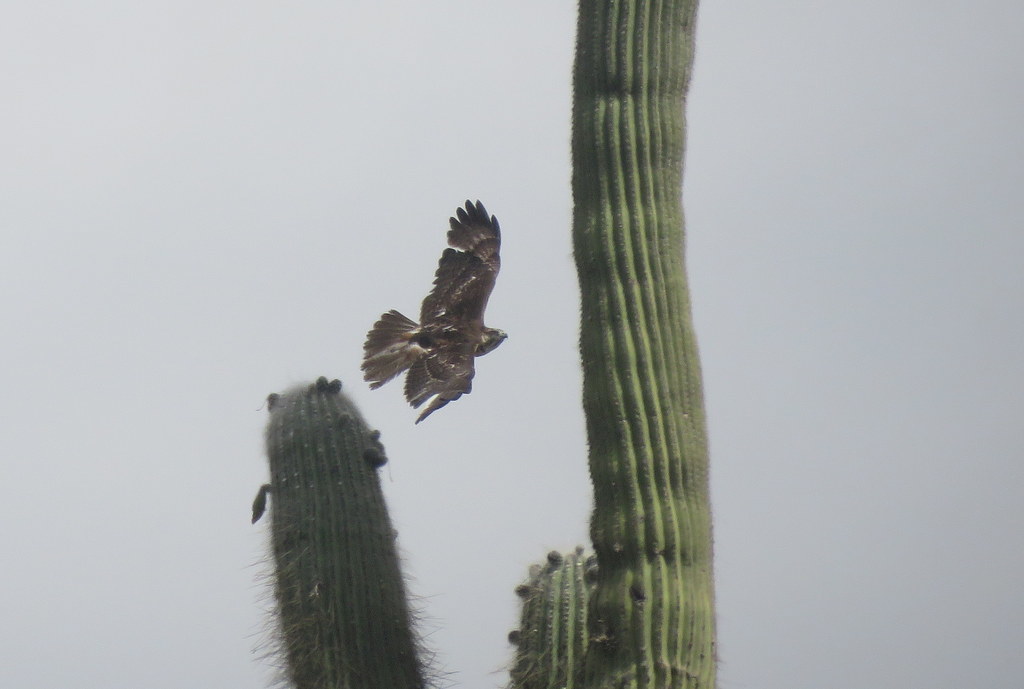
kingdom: Animalia
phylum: Chordata
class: Aves
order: Accipitriformes
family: Accipitridae
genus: Geranoaetus
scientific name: Geranoaetus melanoleucus
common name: Black-chested buzzard-eagle
